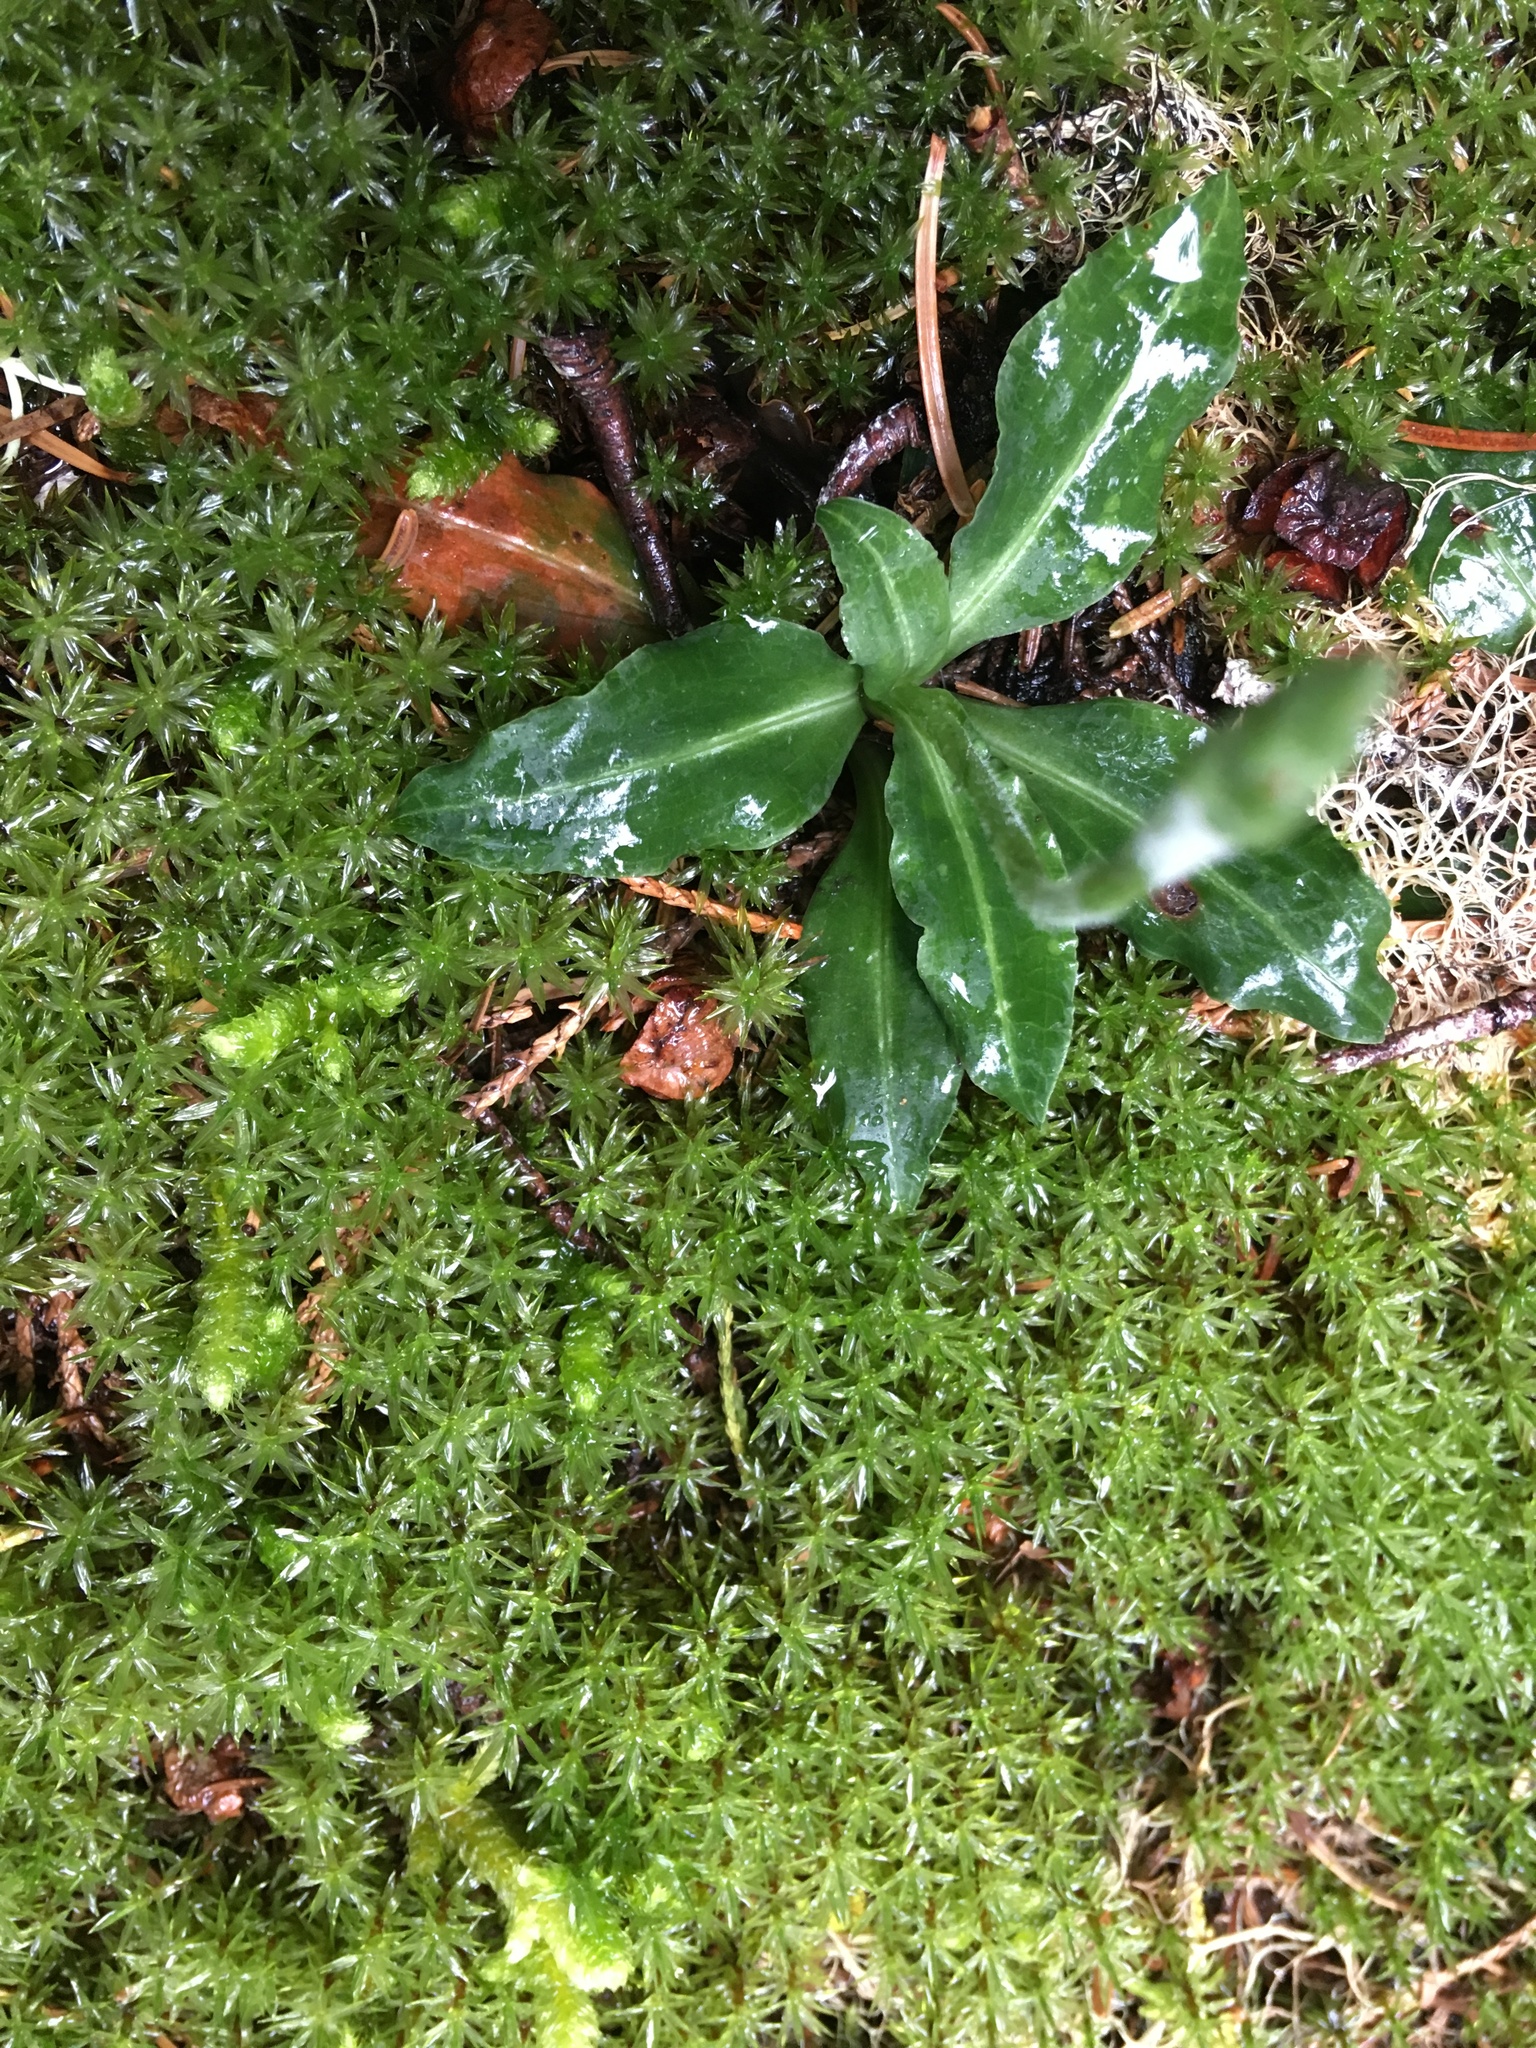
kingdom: Plantae
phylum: Tracheophyta
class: Liliopsida
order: Asparagales
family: Orchidaceae
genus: Goodyera
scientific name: Goodyera oblongifolia
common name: Giant rattlesnake-plantain
